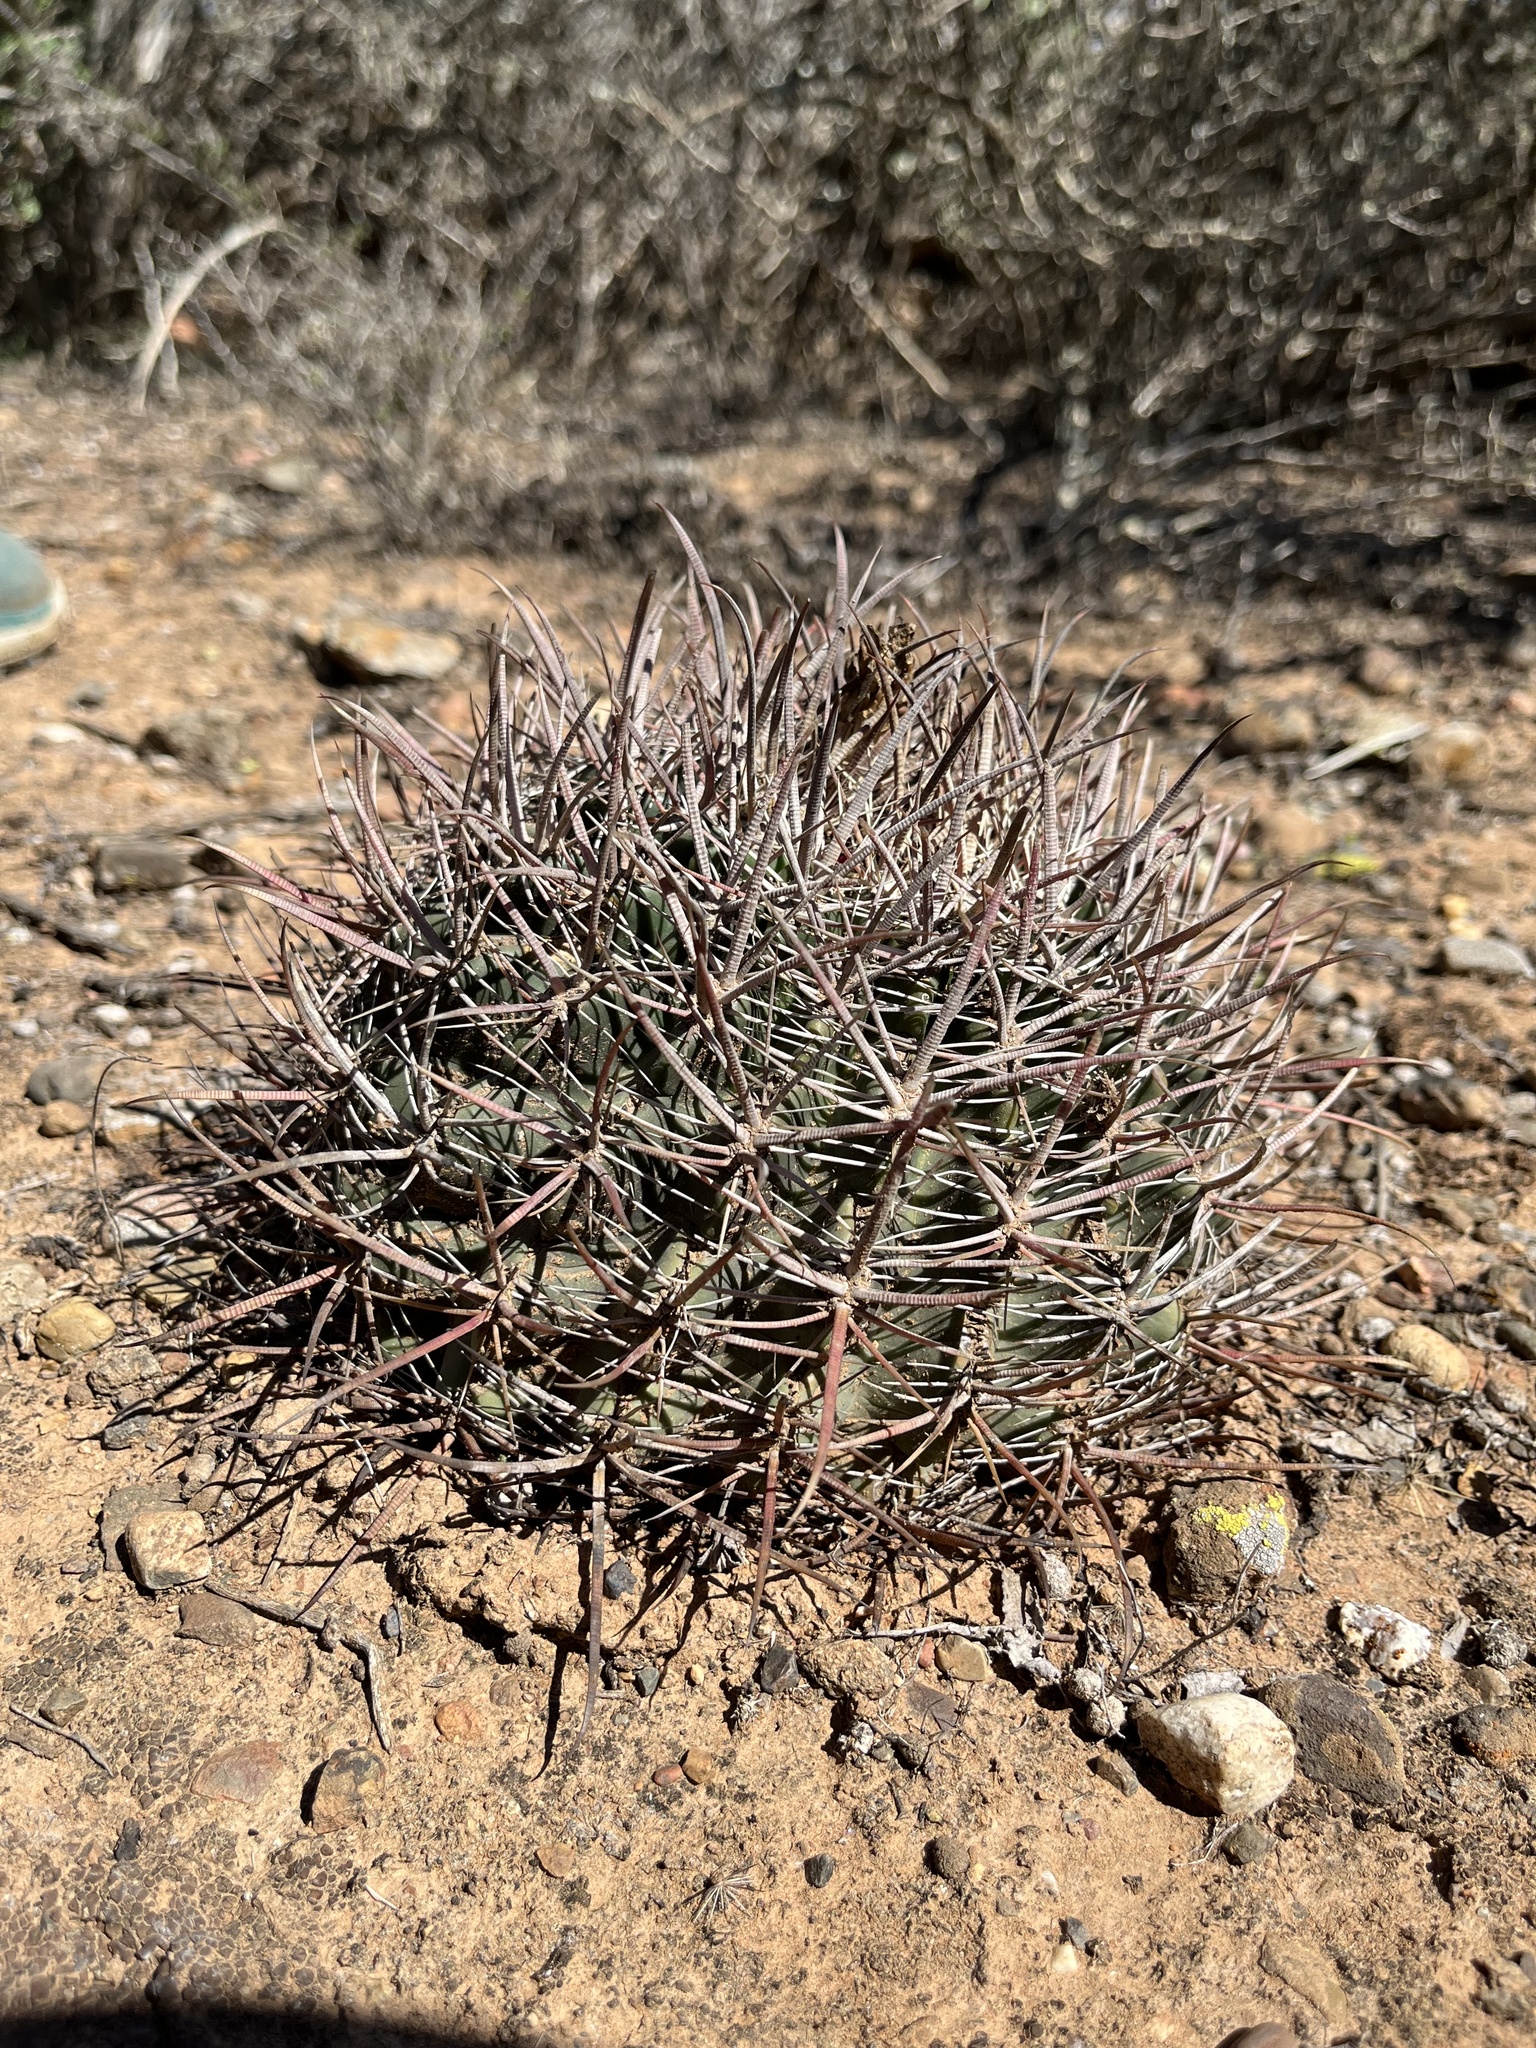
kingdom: Plantae
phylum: Tracheophyta
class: Magnoliopsida
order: Caryophyllales
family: Cactaceae
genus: Ferocactus
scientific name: Ferocactus viridescens
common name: San diego barrel cactus
